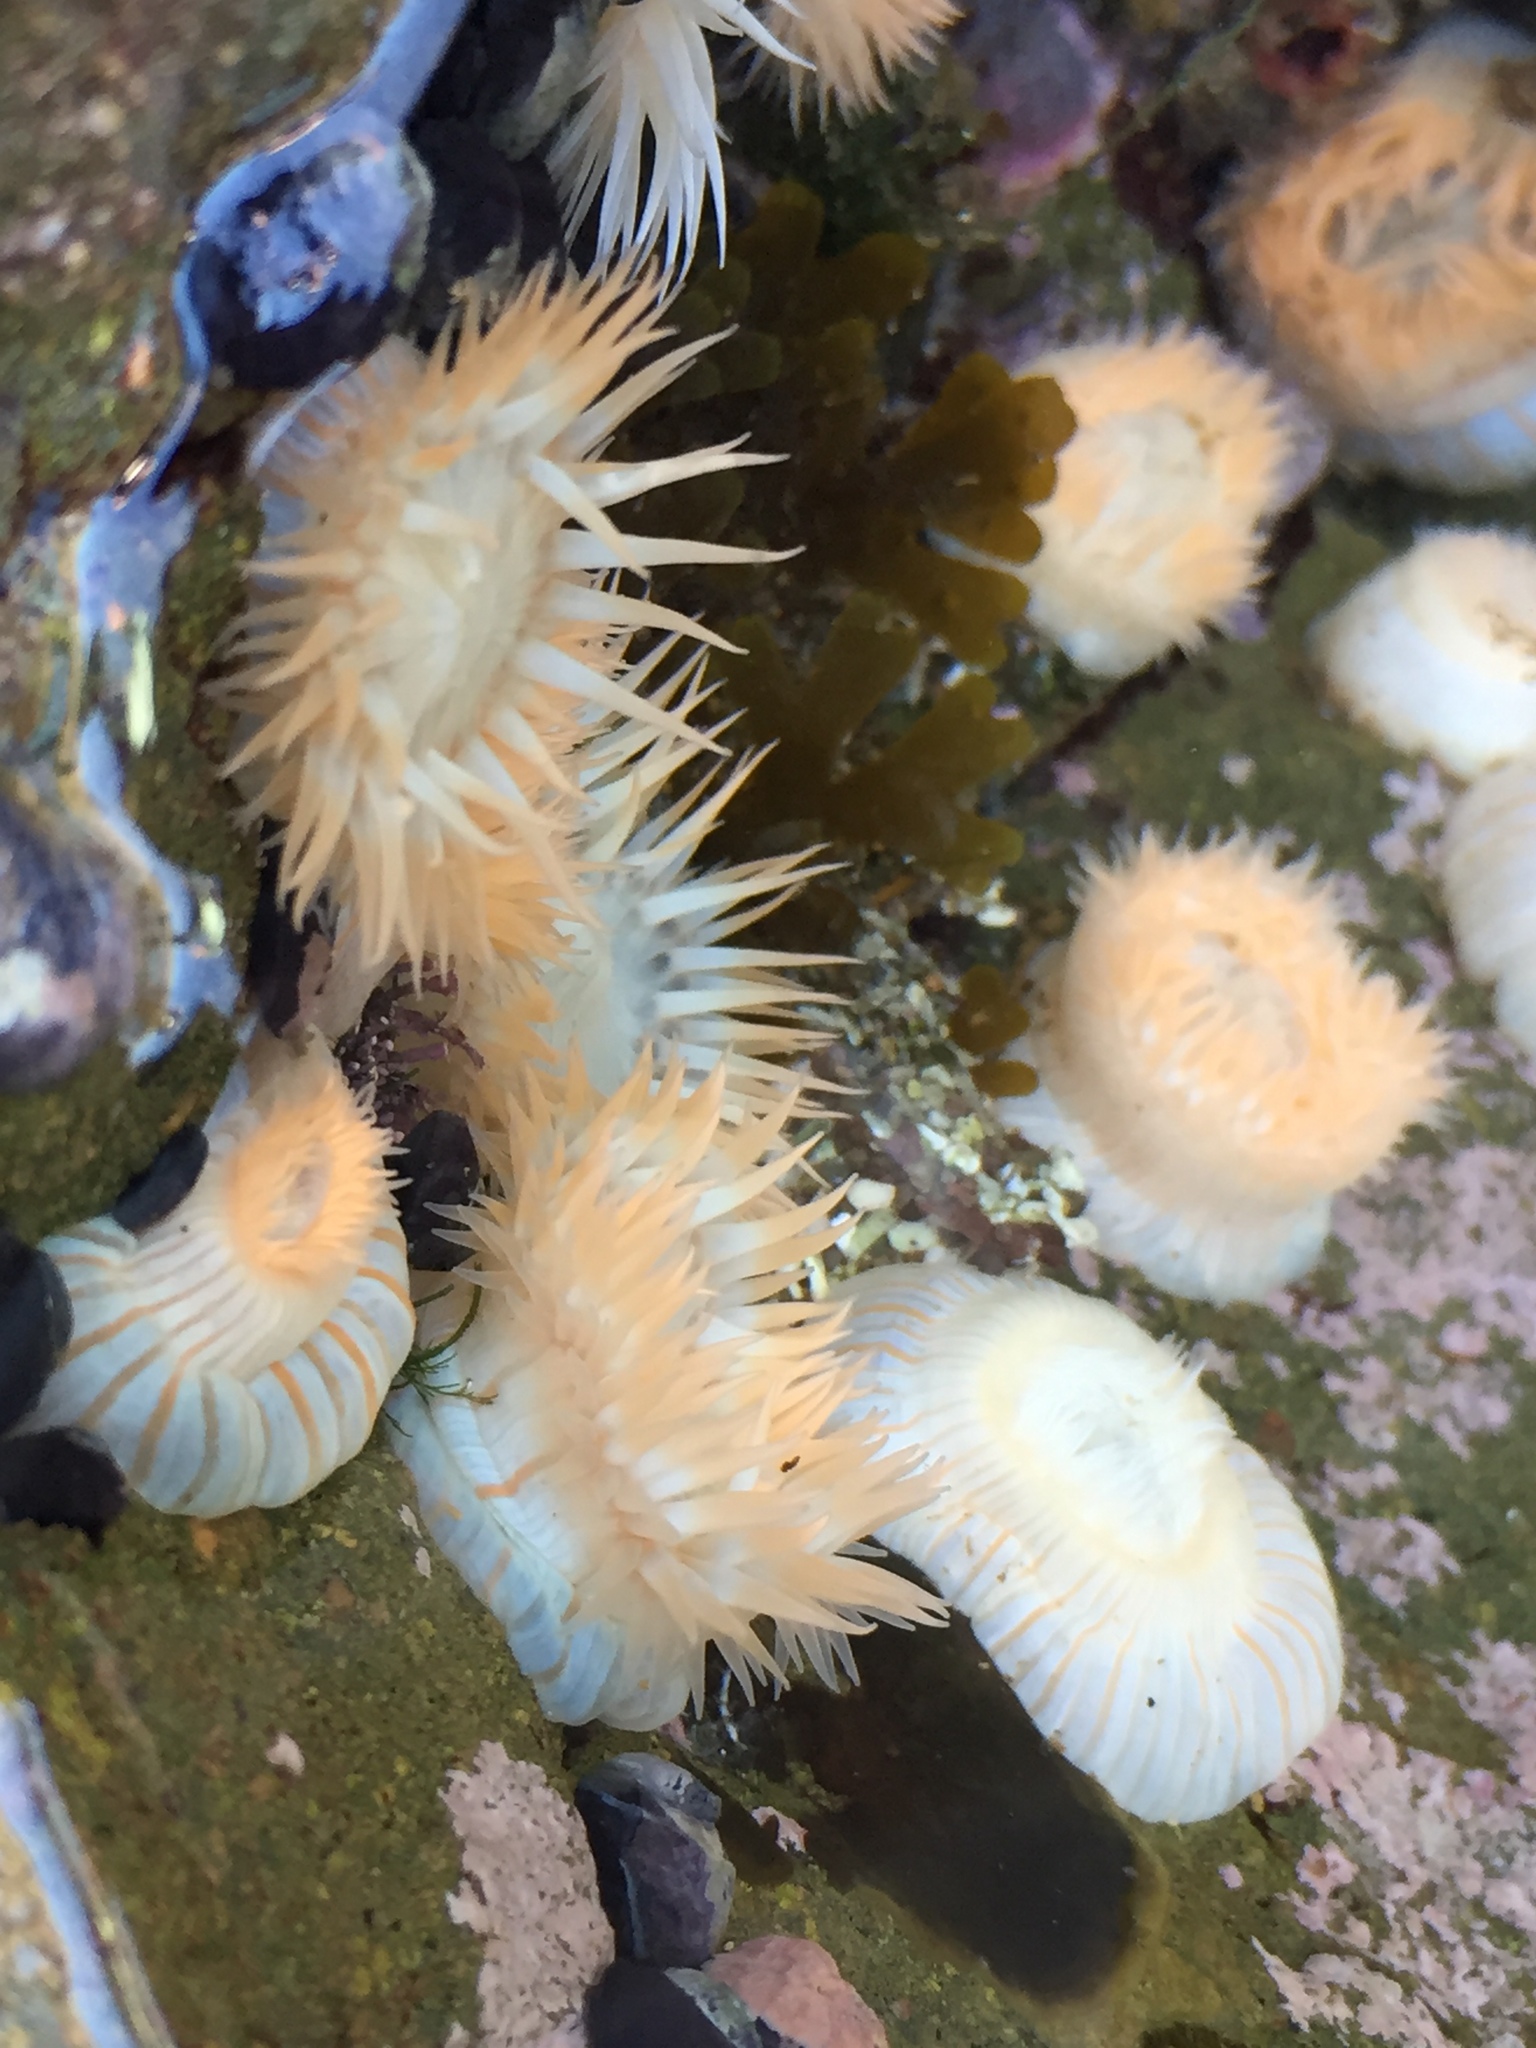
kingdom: Animalia
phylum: Cnidaria
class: Anthozoa
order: Actiniaria
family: Sagartiidae
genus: Anthothoe
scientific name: Anthothoe chilensis
